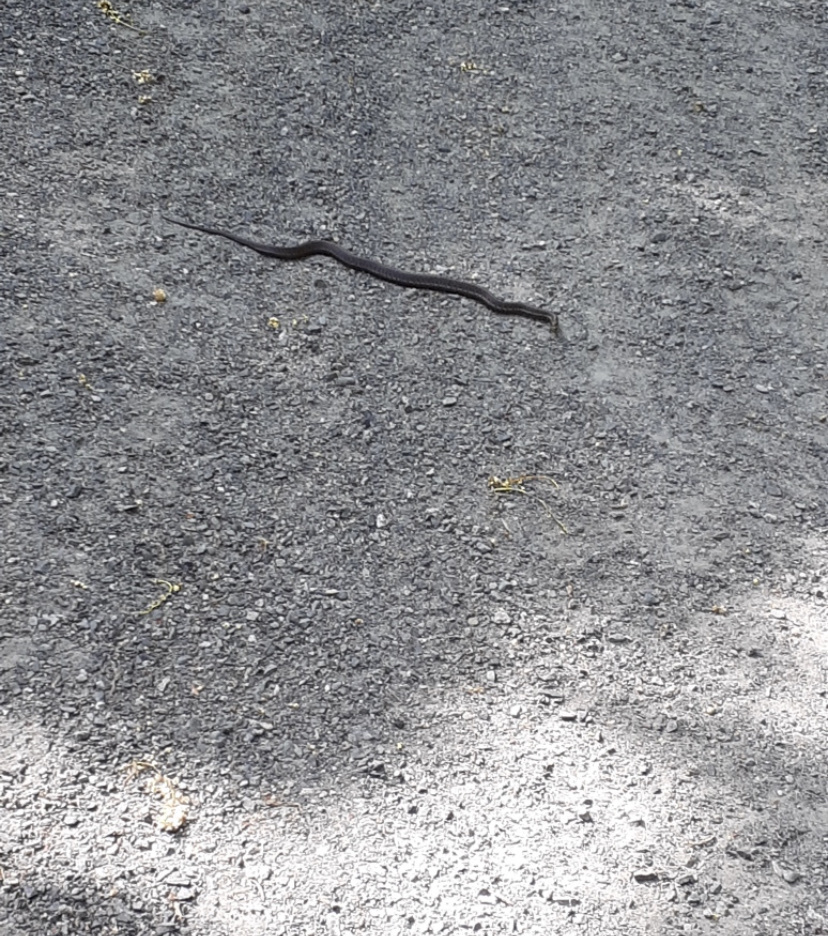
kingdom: Animalia
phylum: Chordata
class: Squamata
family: Colubridae
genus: Thamnophis
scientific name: Thamnophis ordinoides
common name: Northwestern garter snake
